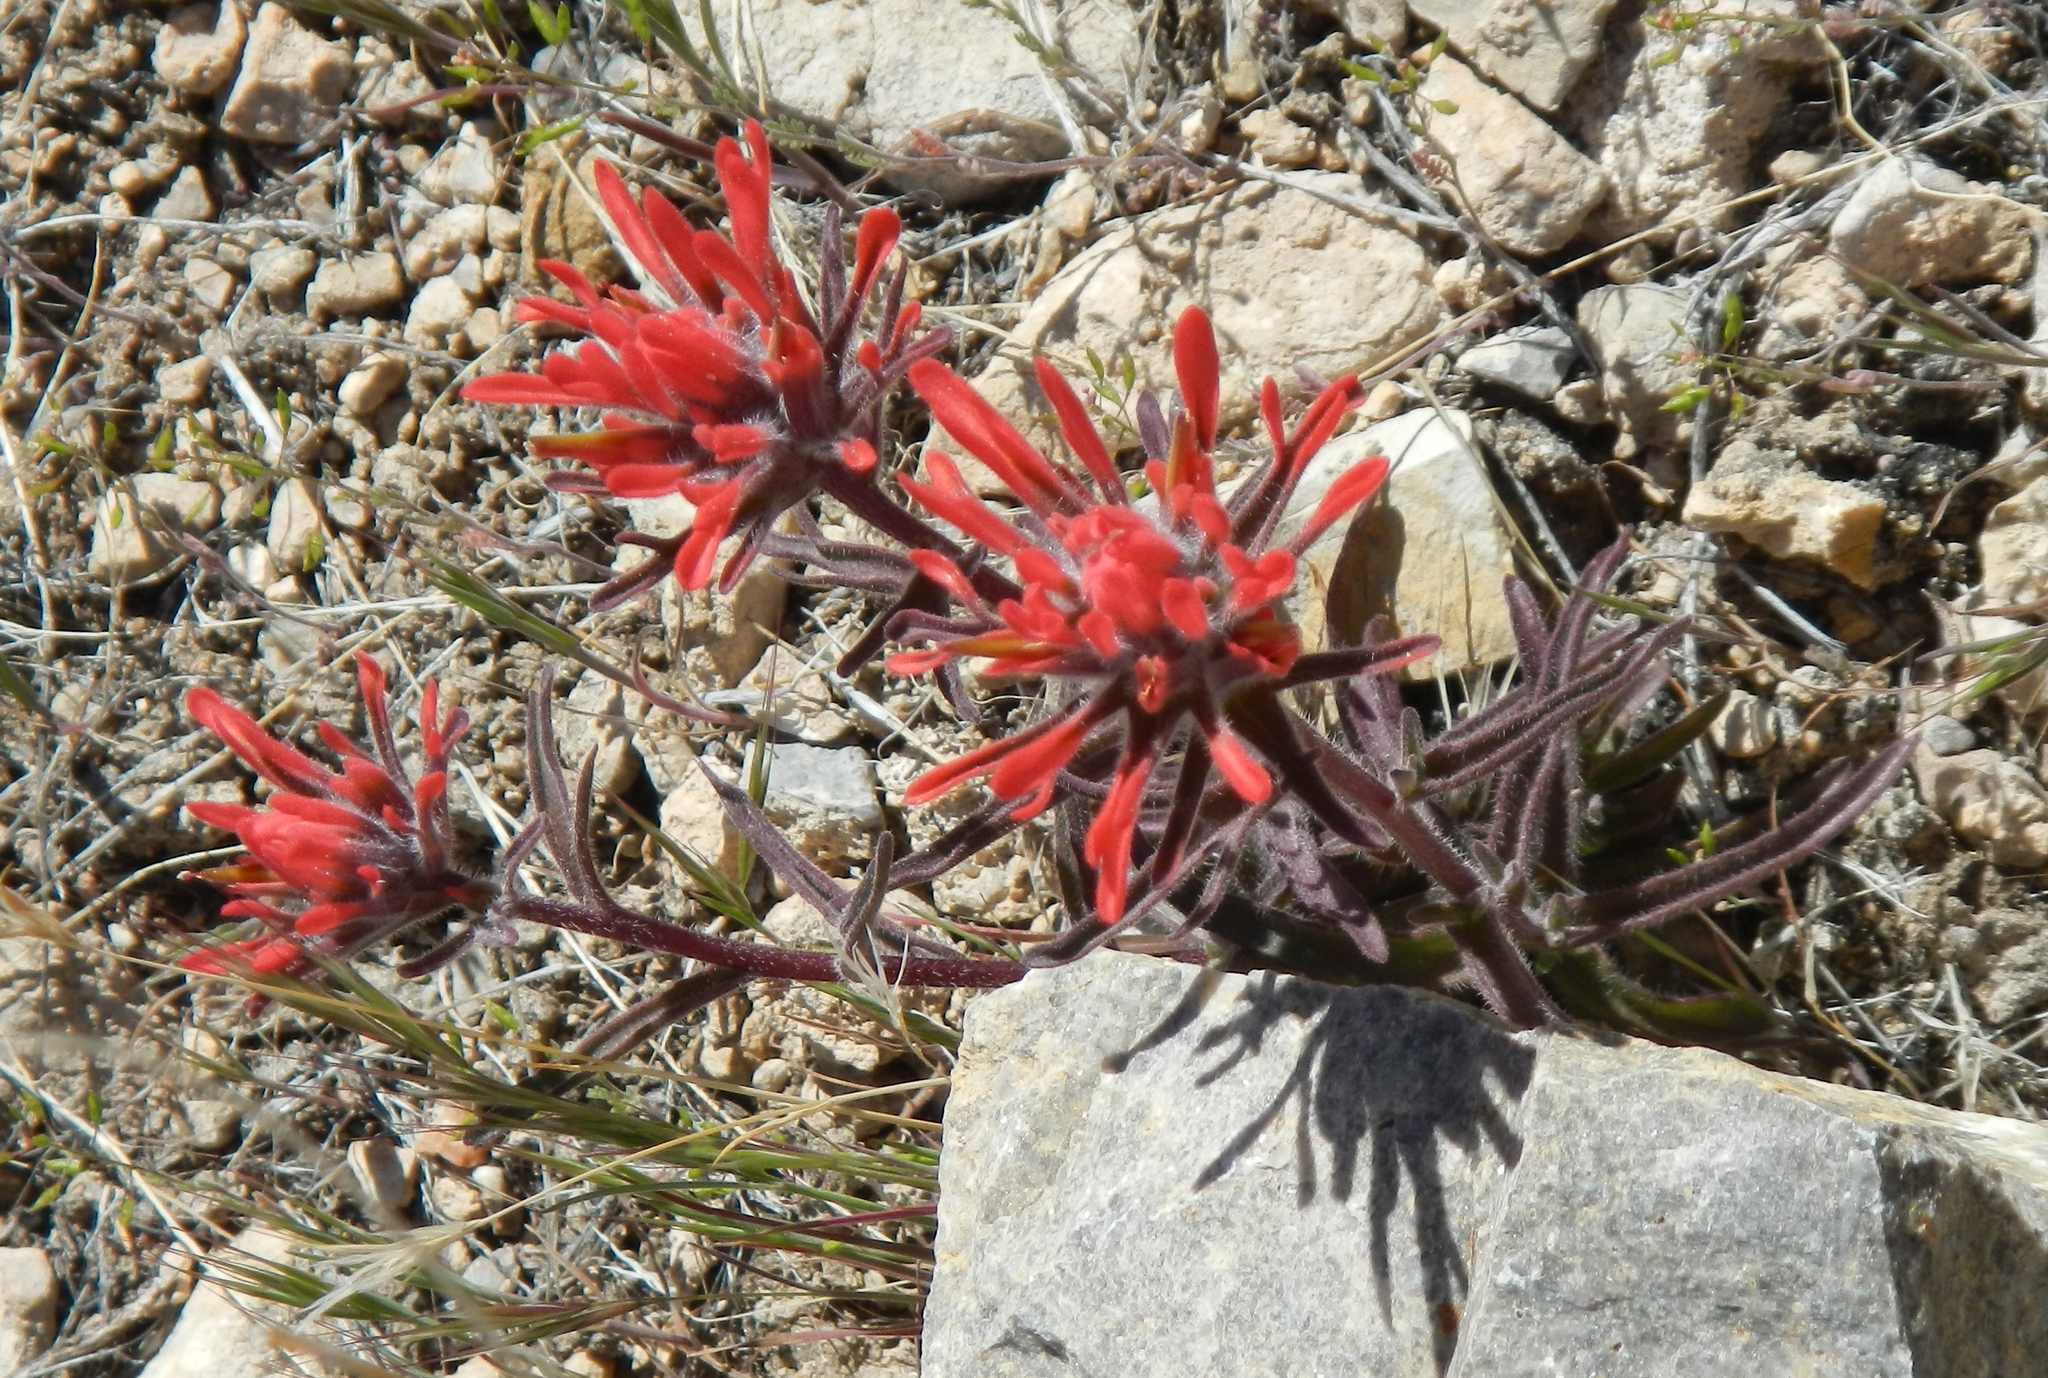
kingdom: Plantae
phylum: Tracheophyta
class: Magnoliopsida
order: Lamiales
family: Orobanchaceae
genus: Castilleja
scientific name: Castilleja chromosa
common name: Desert paintbrush
